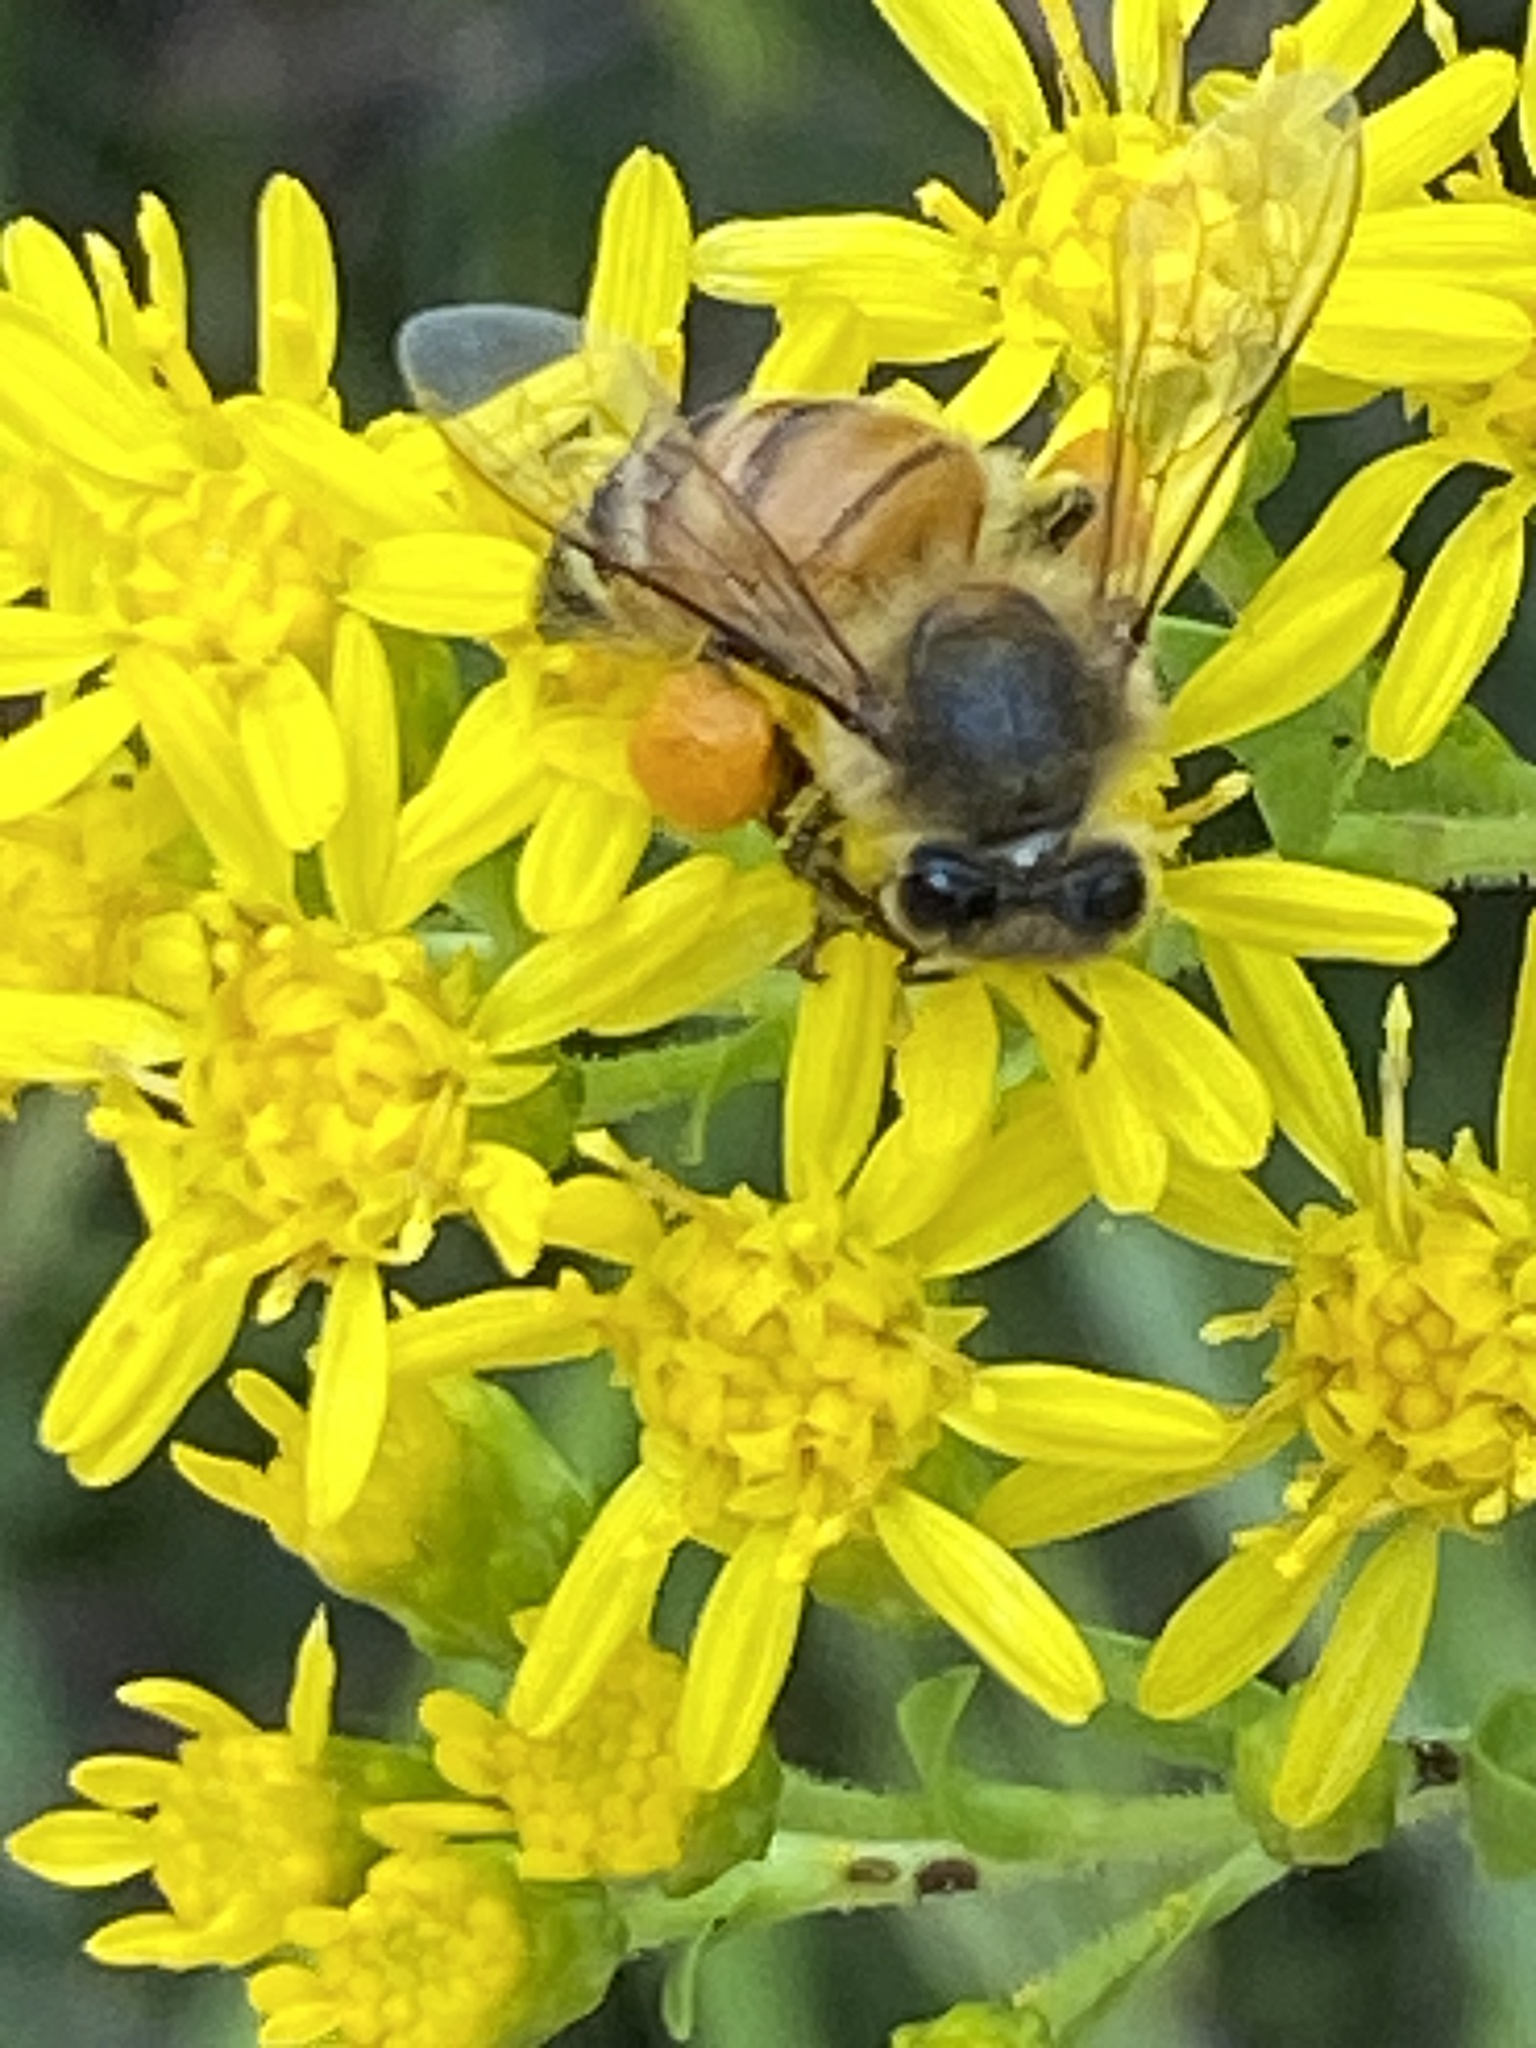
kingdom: Animalia
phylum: Arthropoda
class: Insecta
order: Hymenoptera
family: Apidae
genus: Apis
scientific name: Apis mellifera
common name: Honey bee
